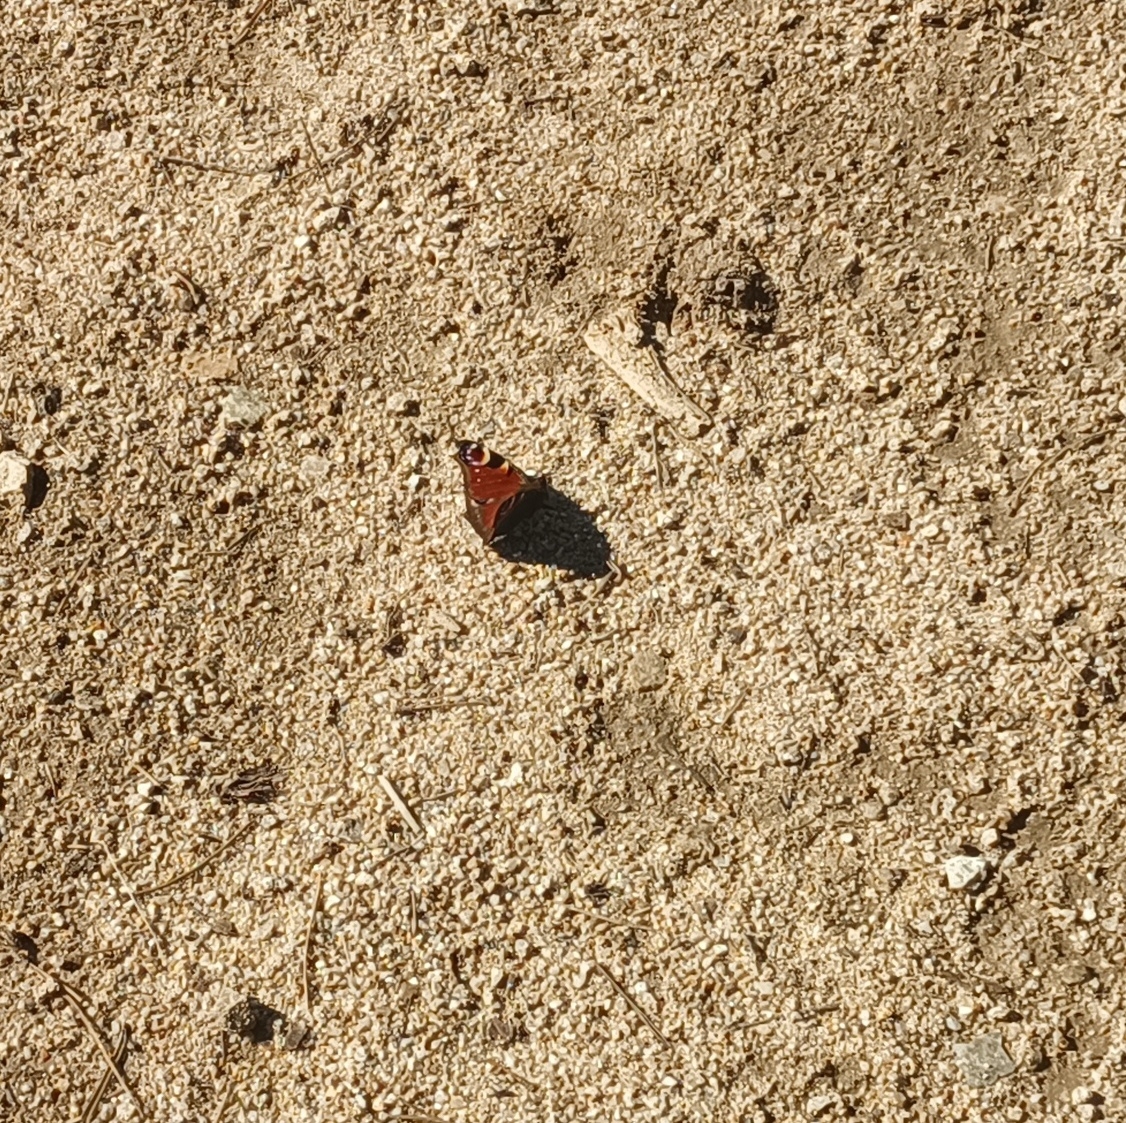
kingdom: Animalia
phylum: Arthropoda
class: Insecta
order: Lepidoptera
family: Nymphalidae
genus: Aglais
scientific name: Aglais io
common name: Peacock
